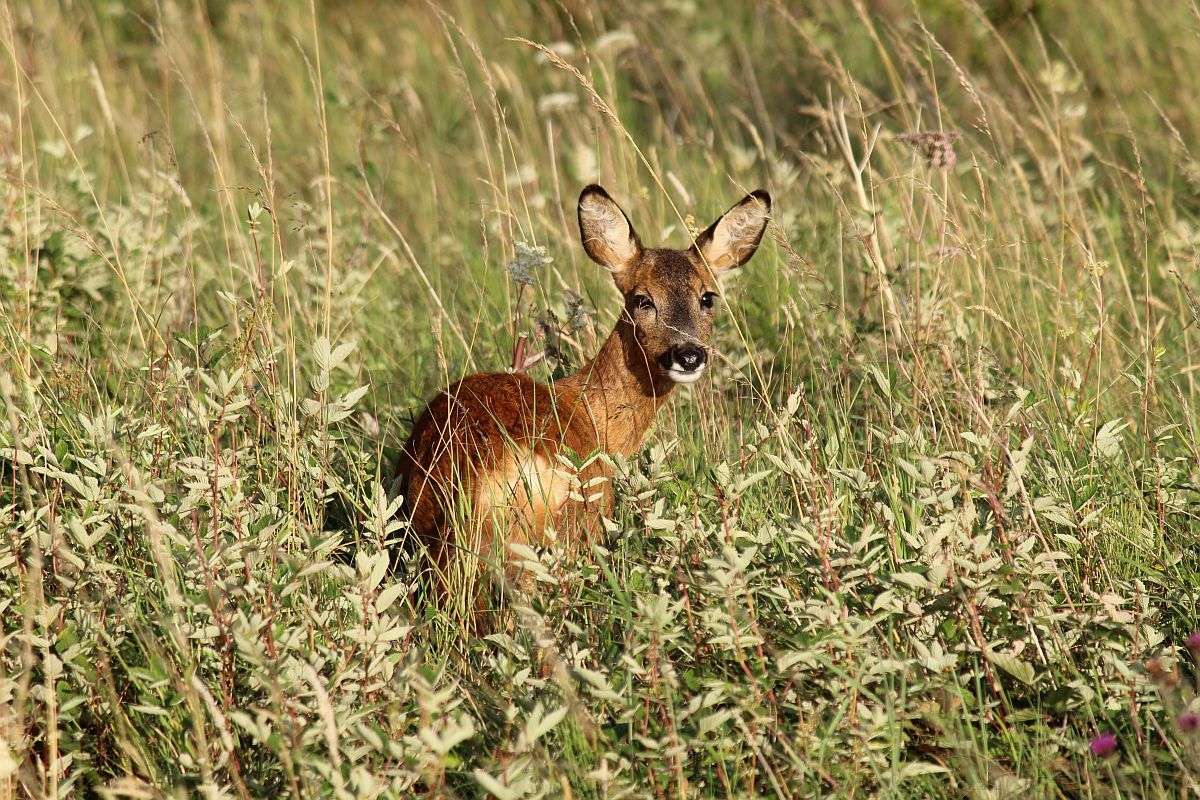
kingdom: Animalia
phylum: Chordata
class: Mammalia
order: Artiodactyla
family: Cervidae
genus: Capreolus
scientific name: Capreolus capreolus
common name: Western roe deer
